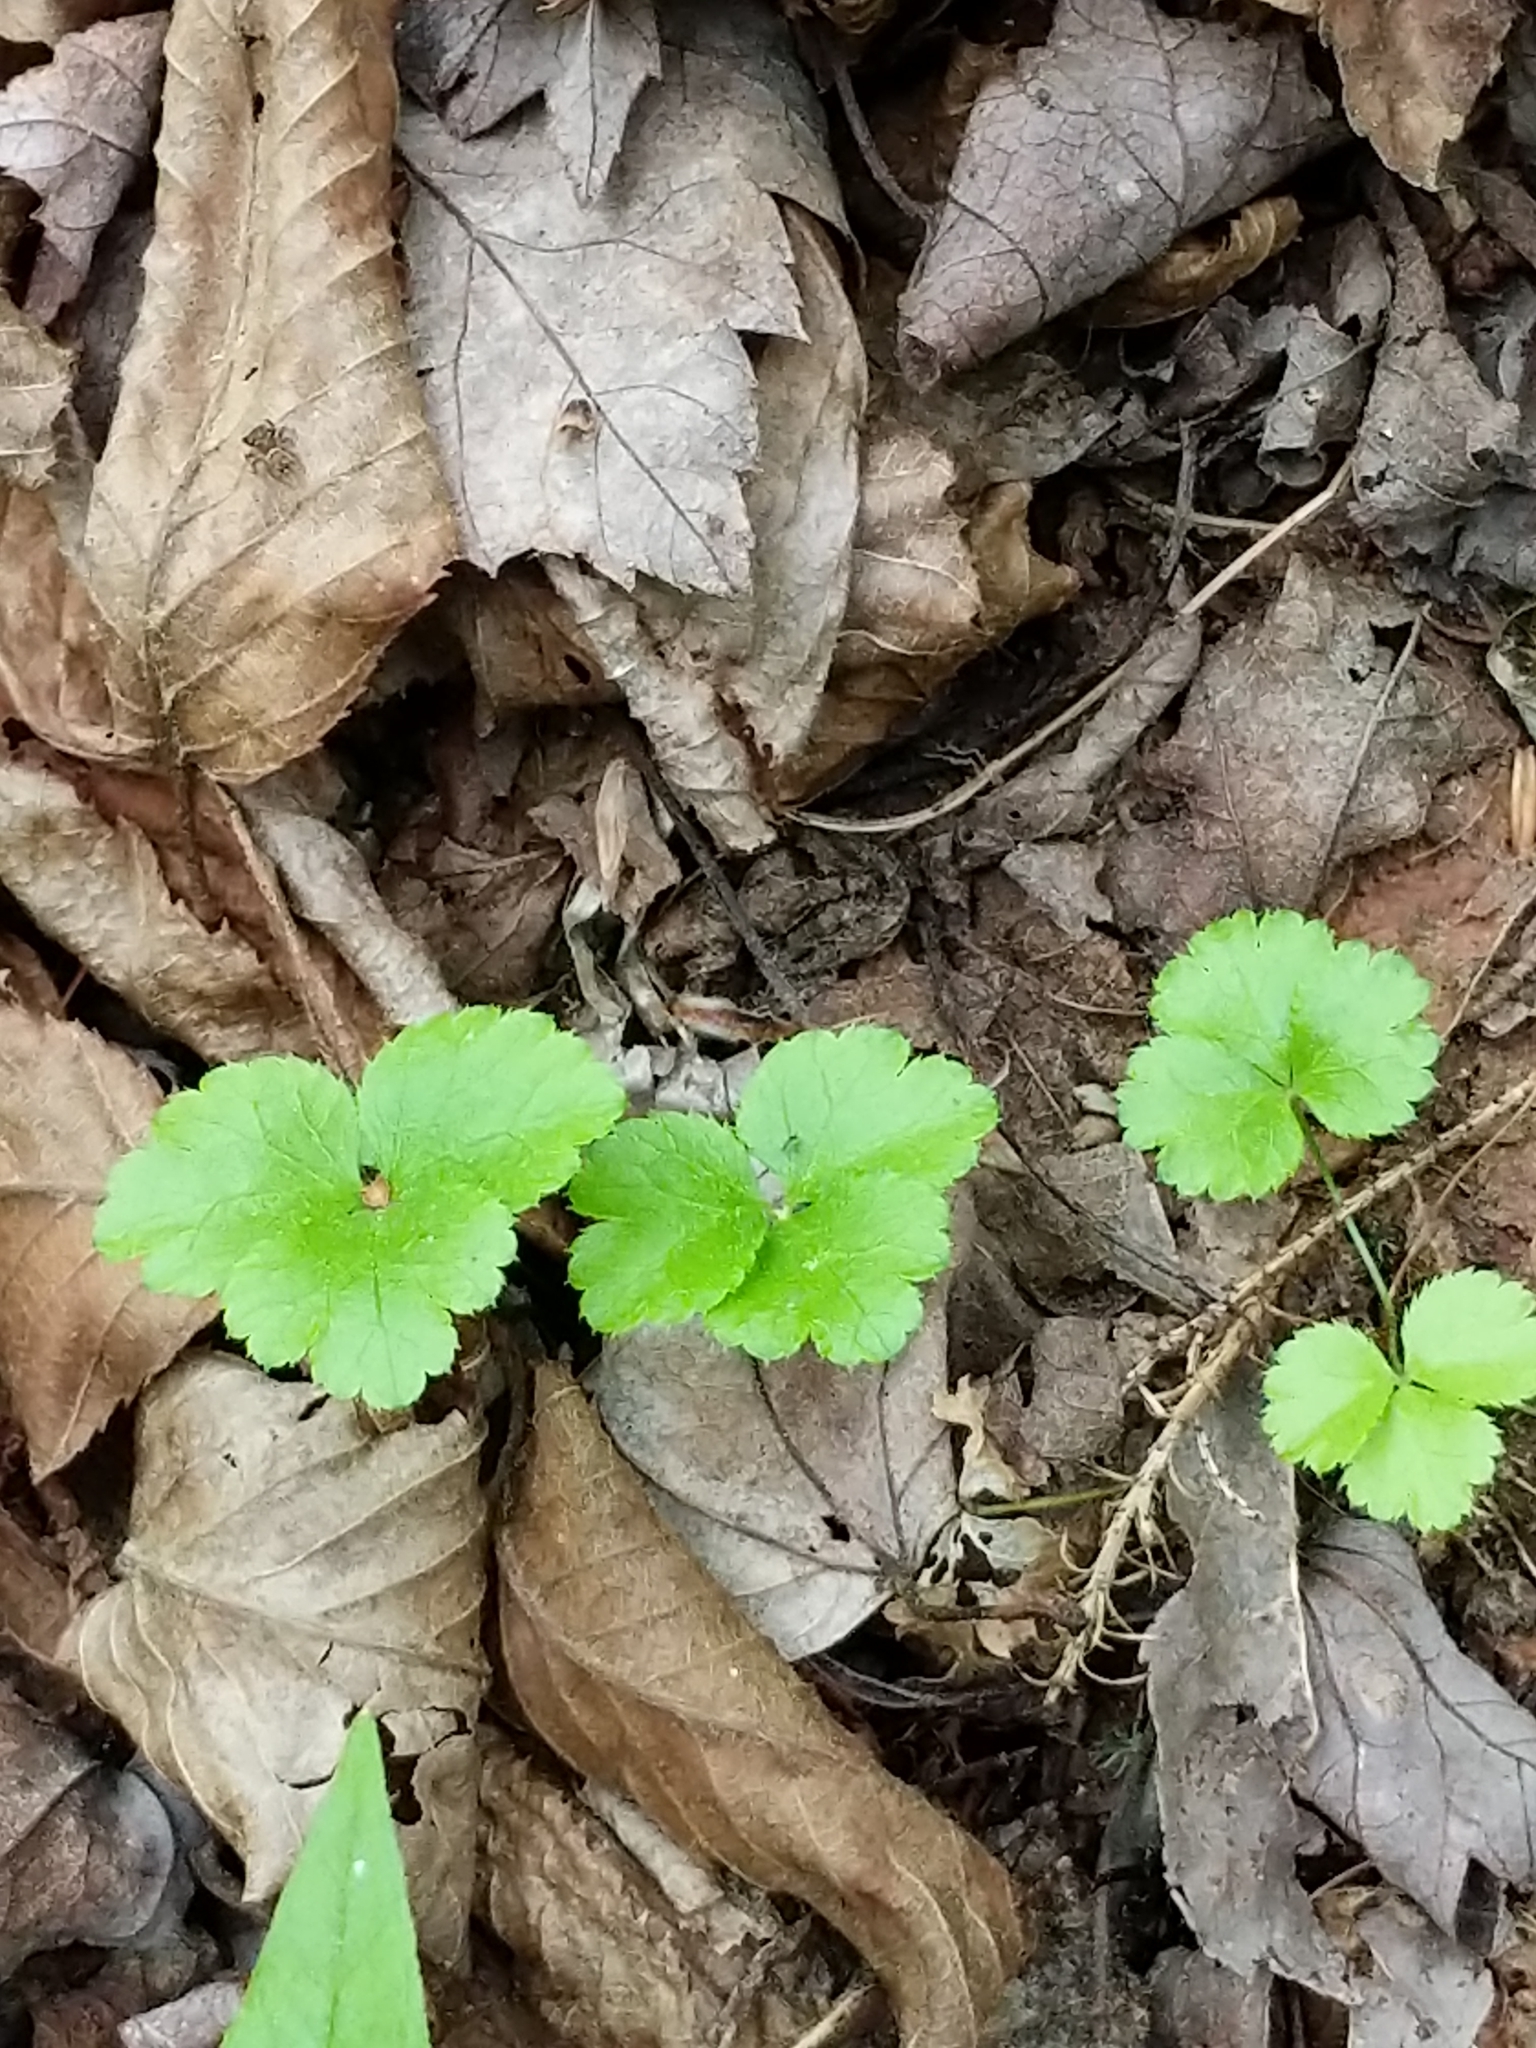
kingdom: Plantae
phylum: Tracheophyta
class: Magnoliopsida
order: Ranunculales
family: Ranunculaceae
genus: Coptis
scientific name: Coptis trifolia
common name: Canker-root
